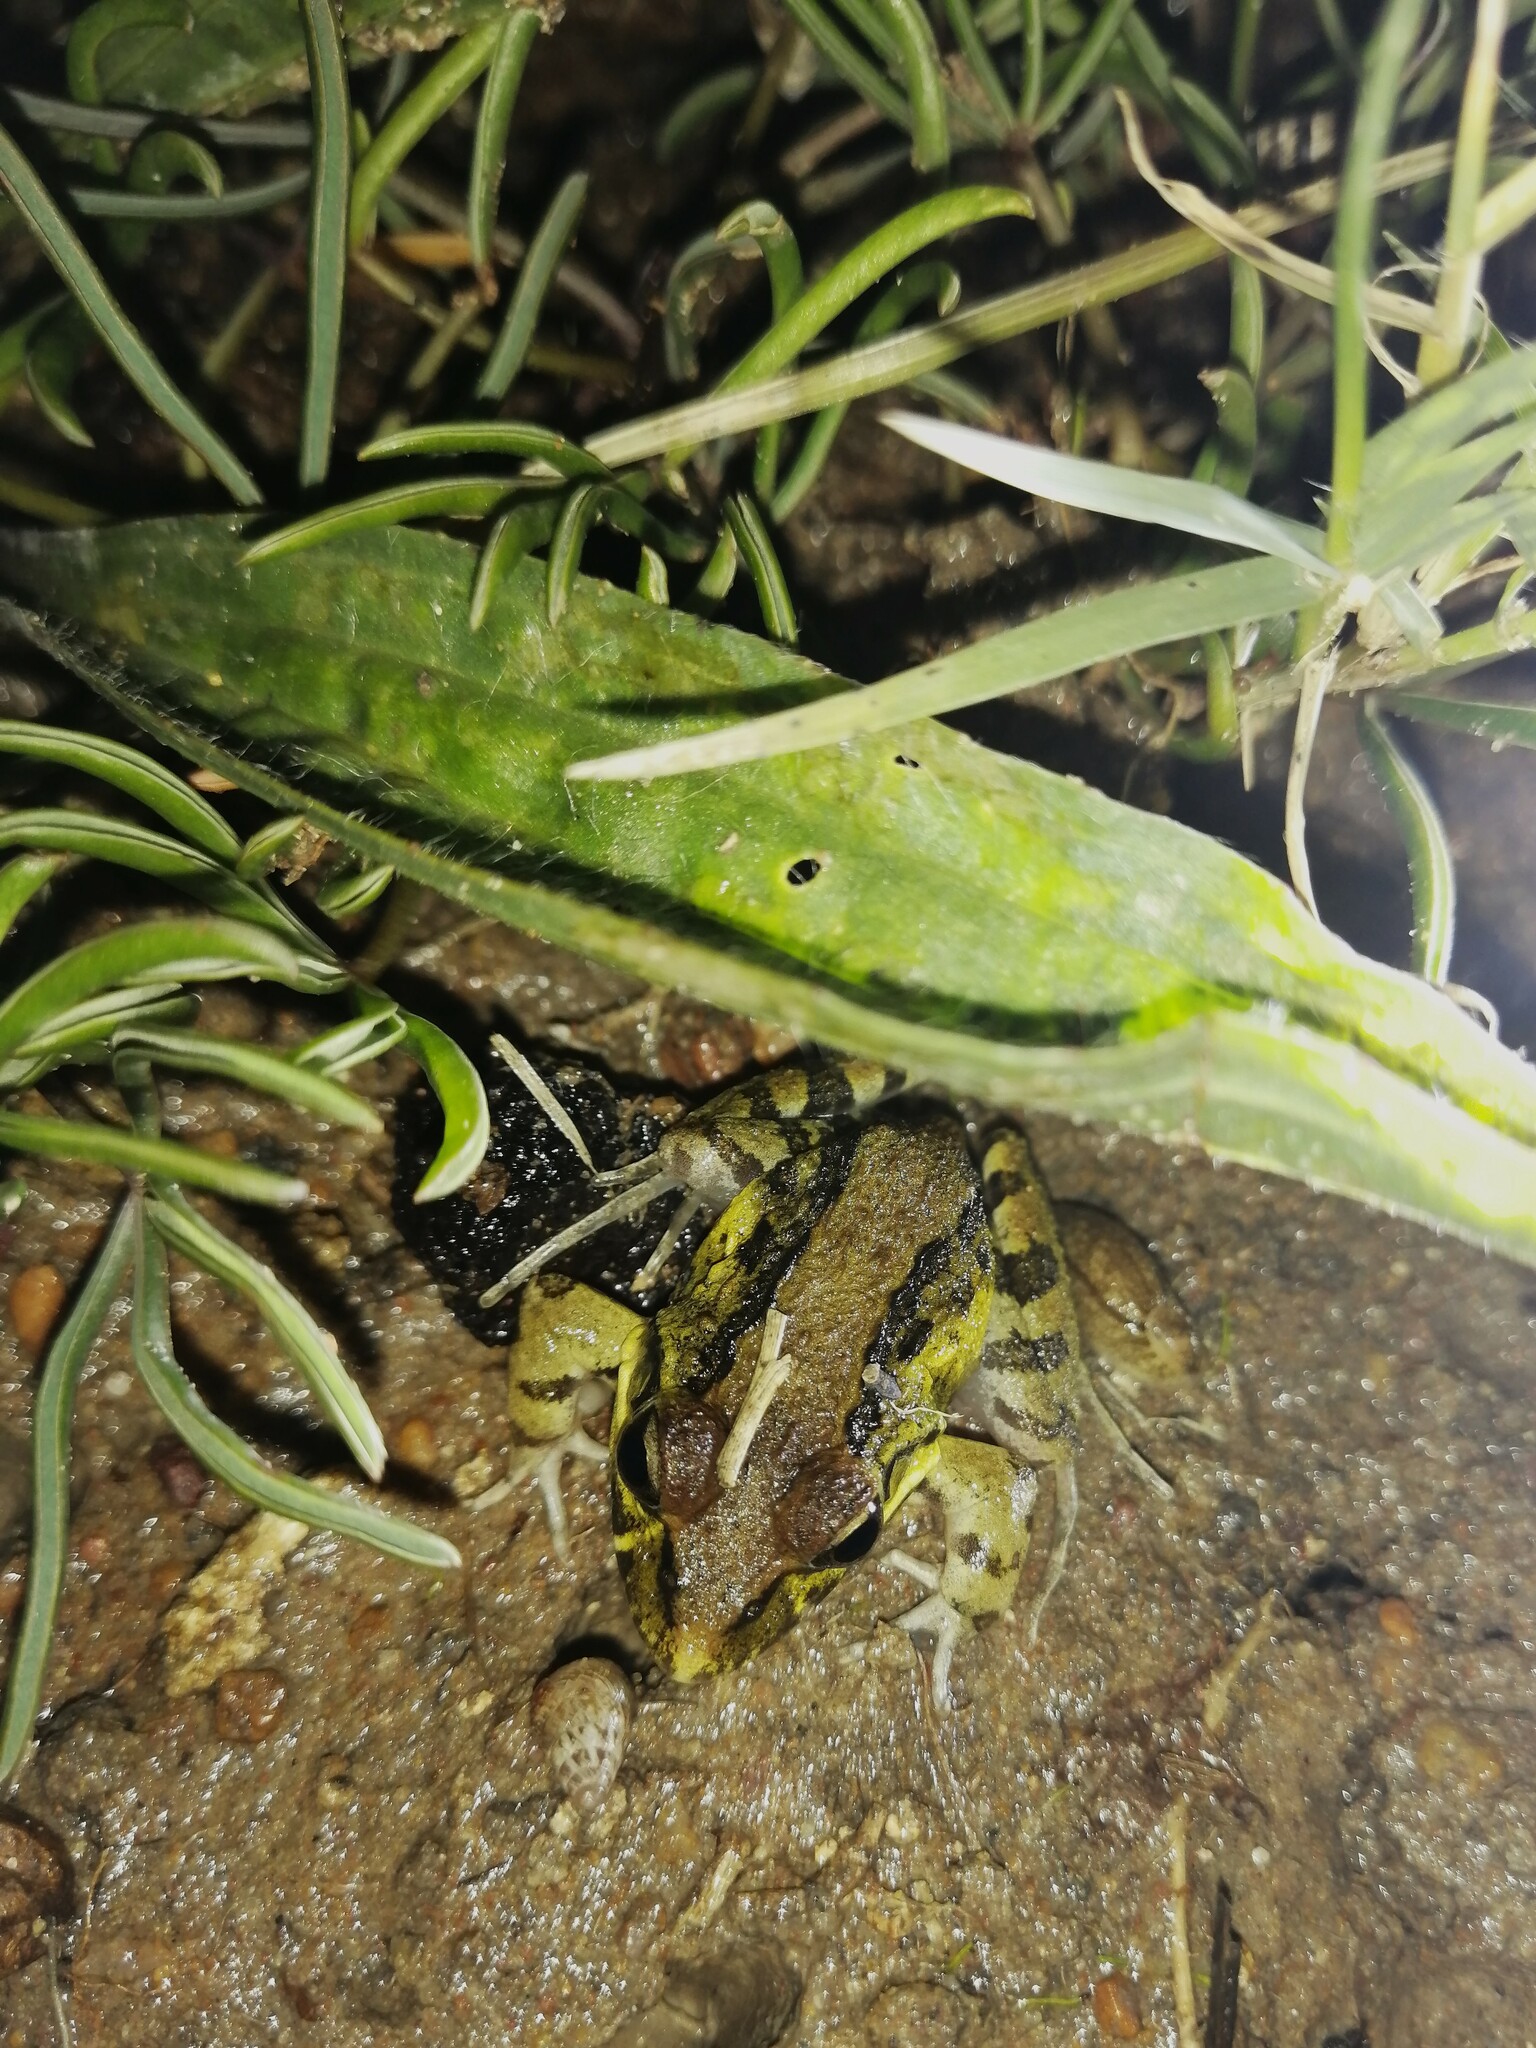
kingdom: Animalia
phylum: Chordata
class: Amphibia
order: Anura
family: Pyxicephalidae
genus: Strongylopus
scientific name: Strongylopus grayii
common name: Gray's stream frog
